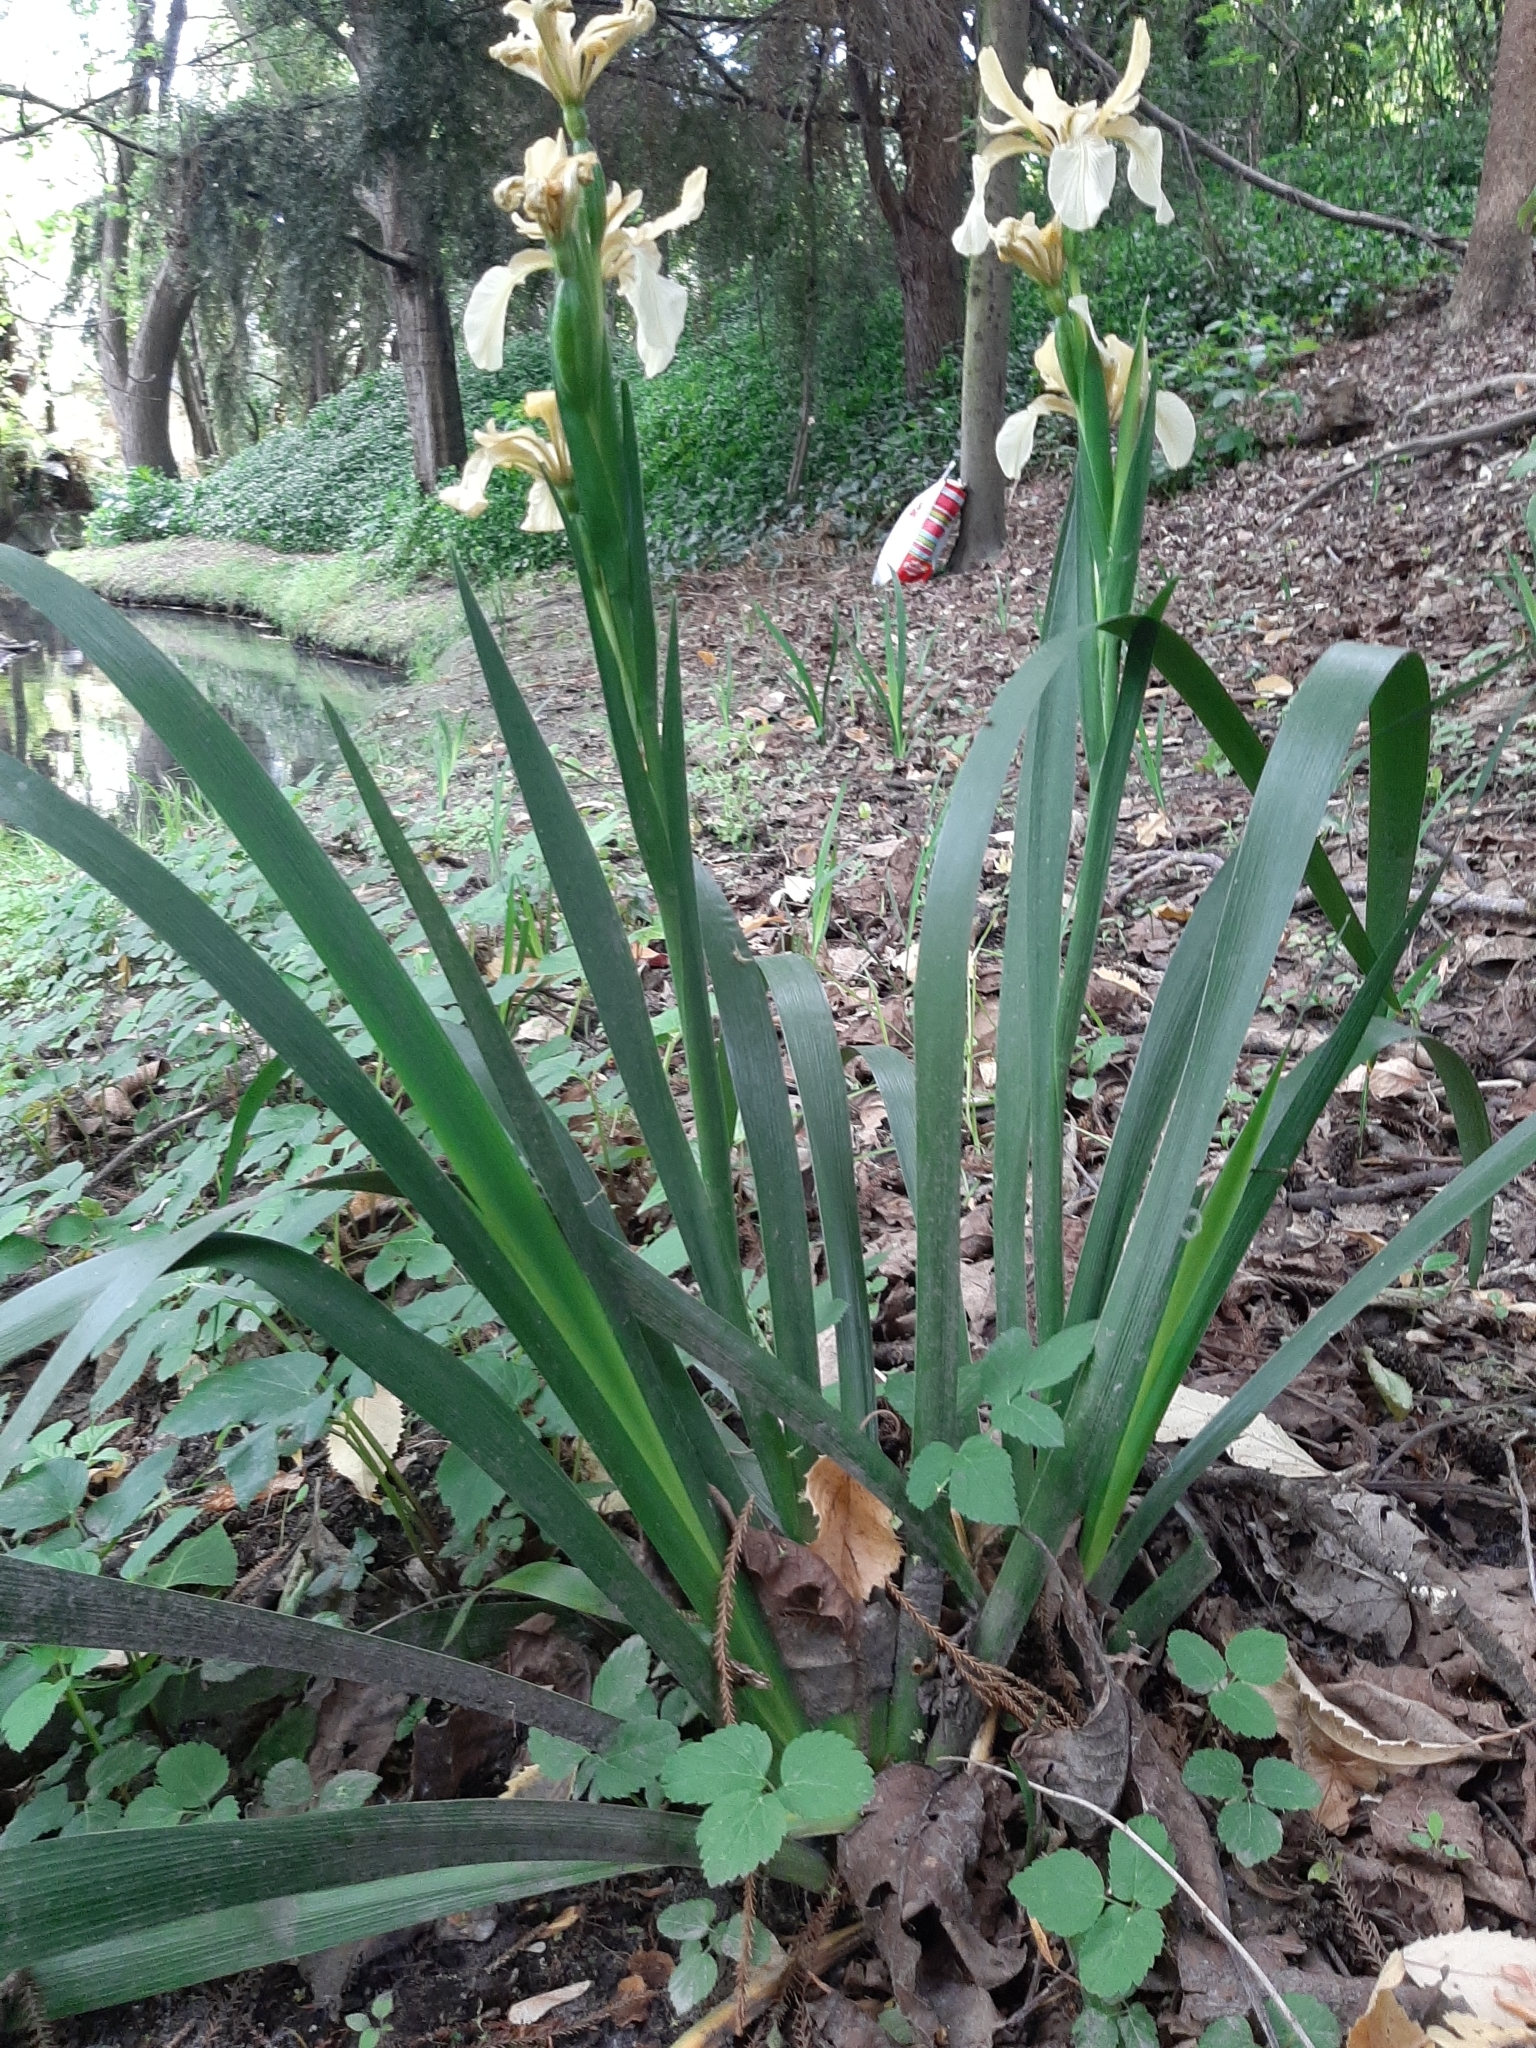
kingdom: Plantae
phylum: Tracheophyta
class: Liliopsida
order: Asparagales
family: Iridaceae
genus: Iris
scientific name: Iris foetidissima
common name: Stinking iris
